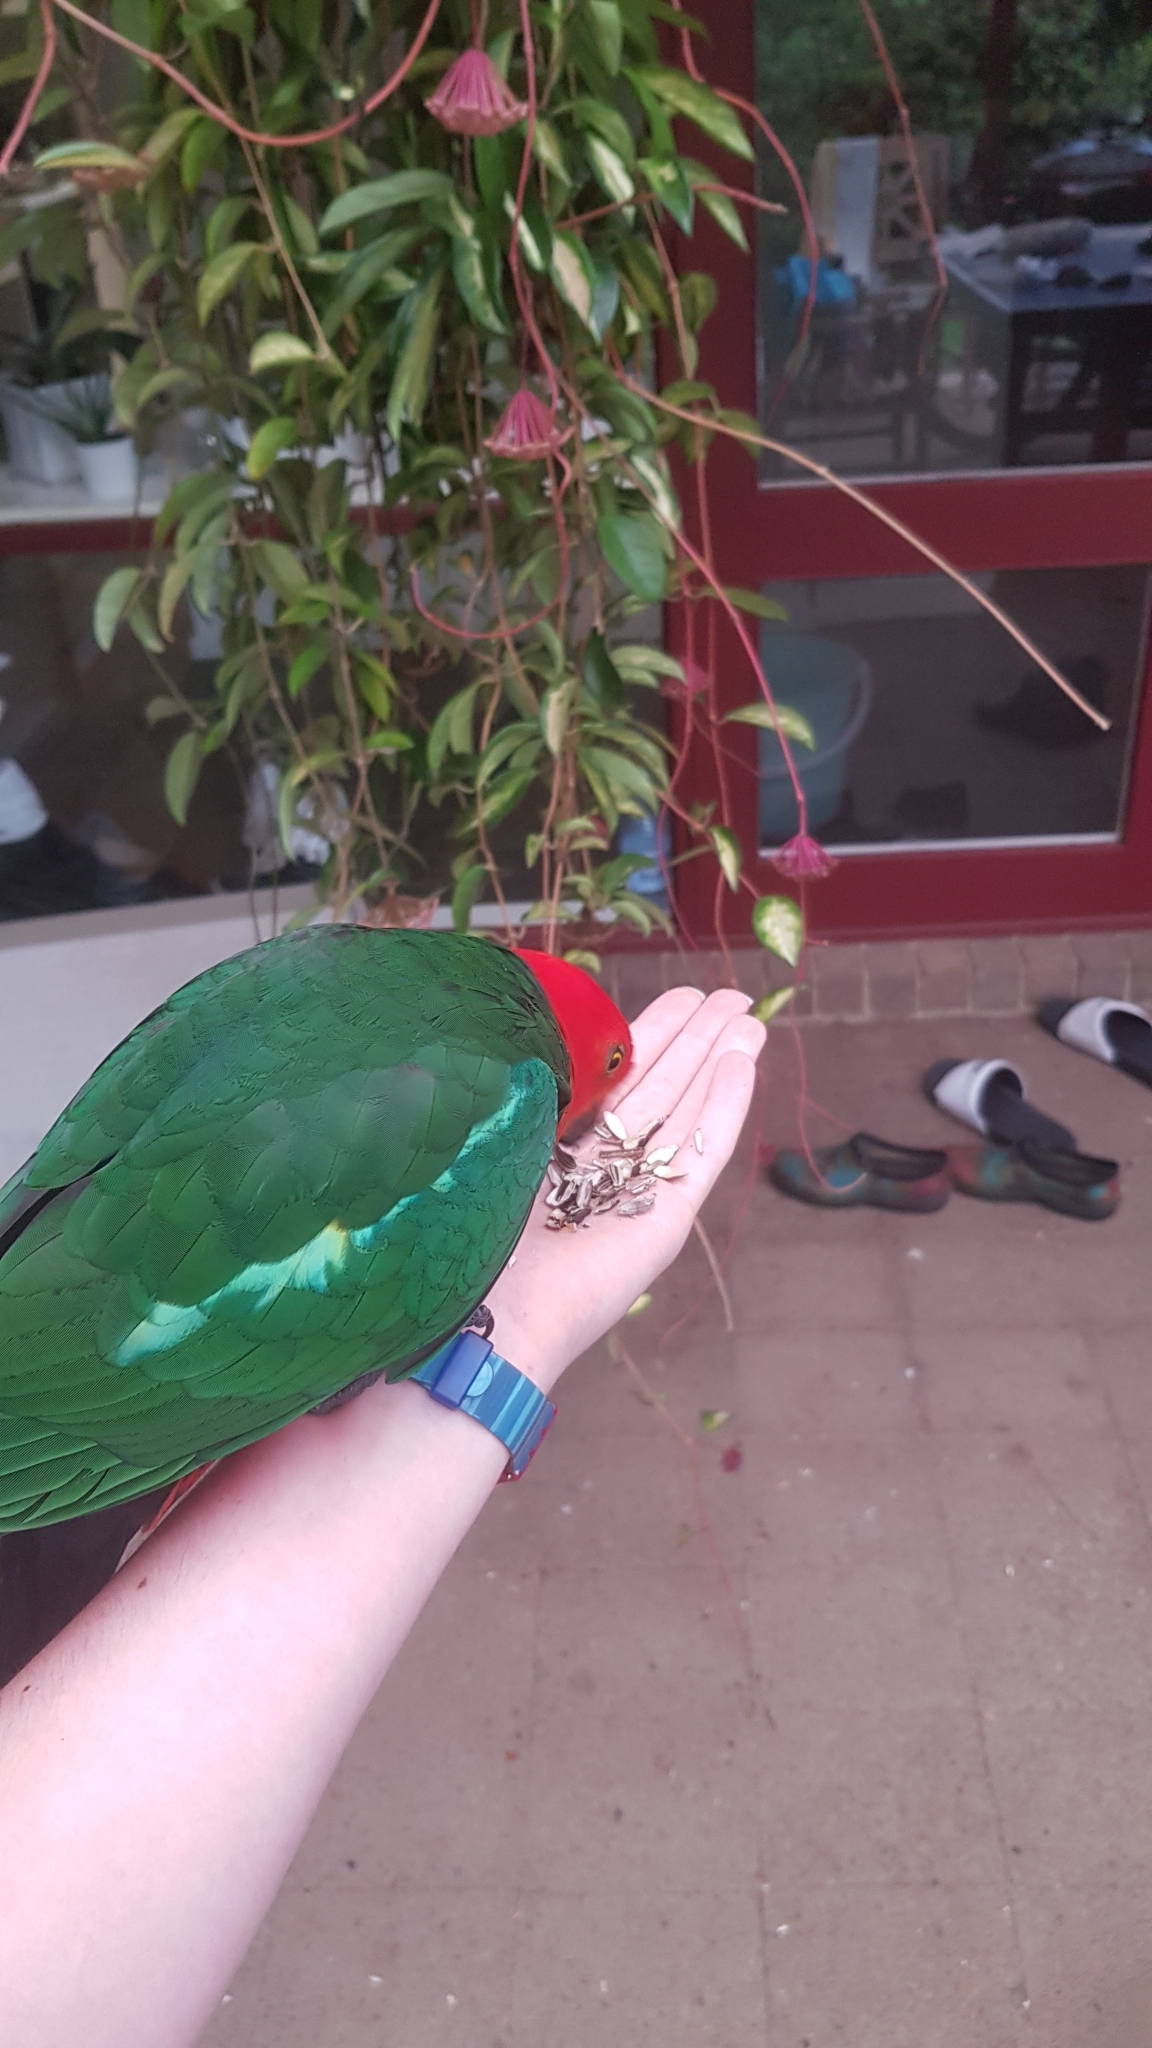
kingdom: Animalia
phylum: Chordata
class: Aves
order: Psittaciformes
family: Psittacidae
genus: Alisterus
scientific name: Alisterus scapularis
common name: Australian king parrot
